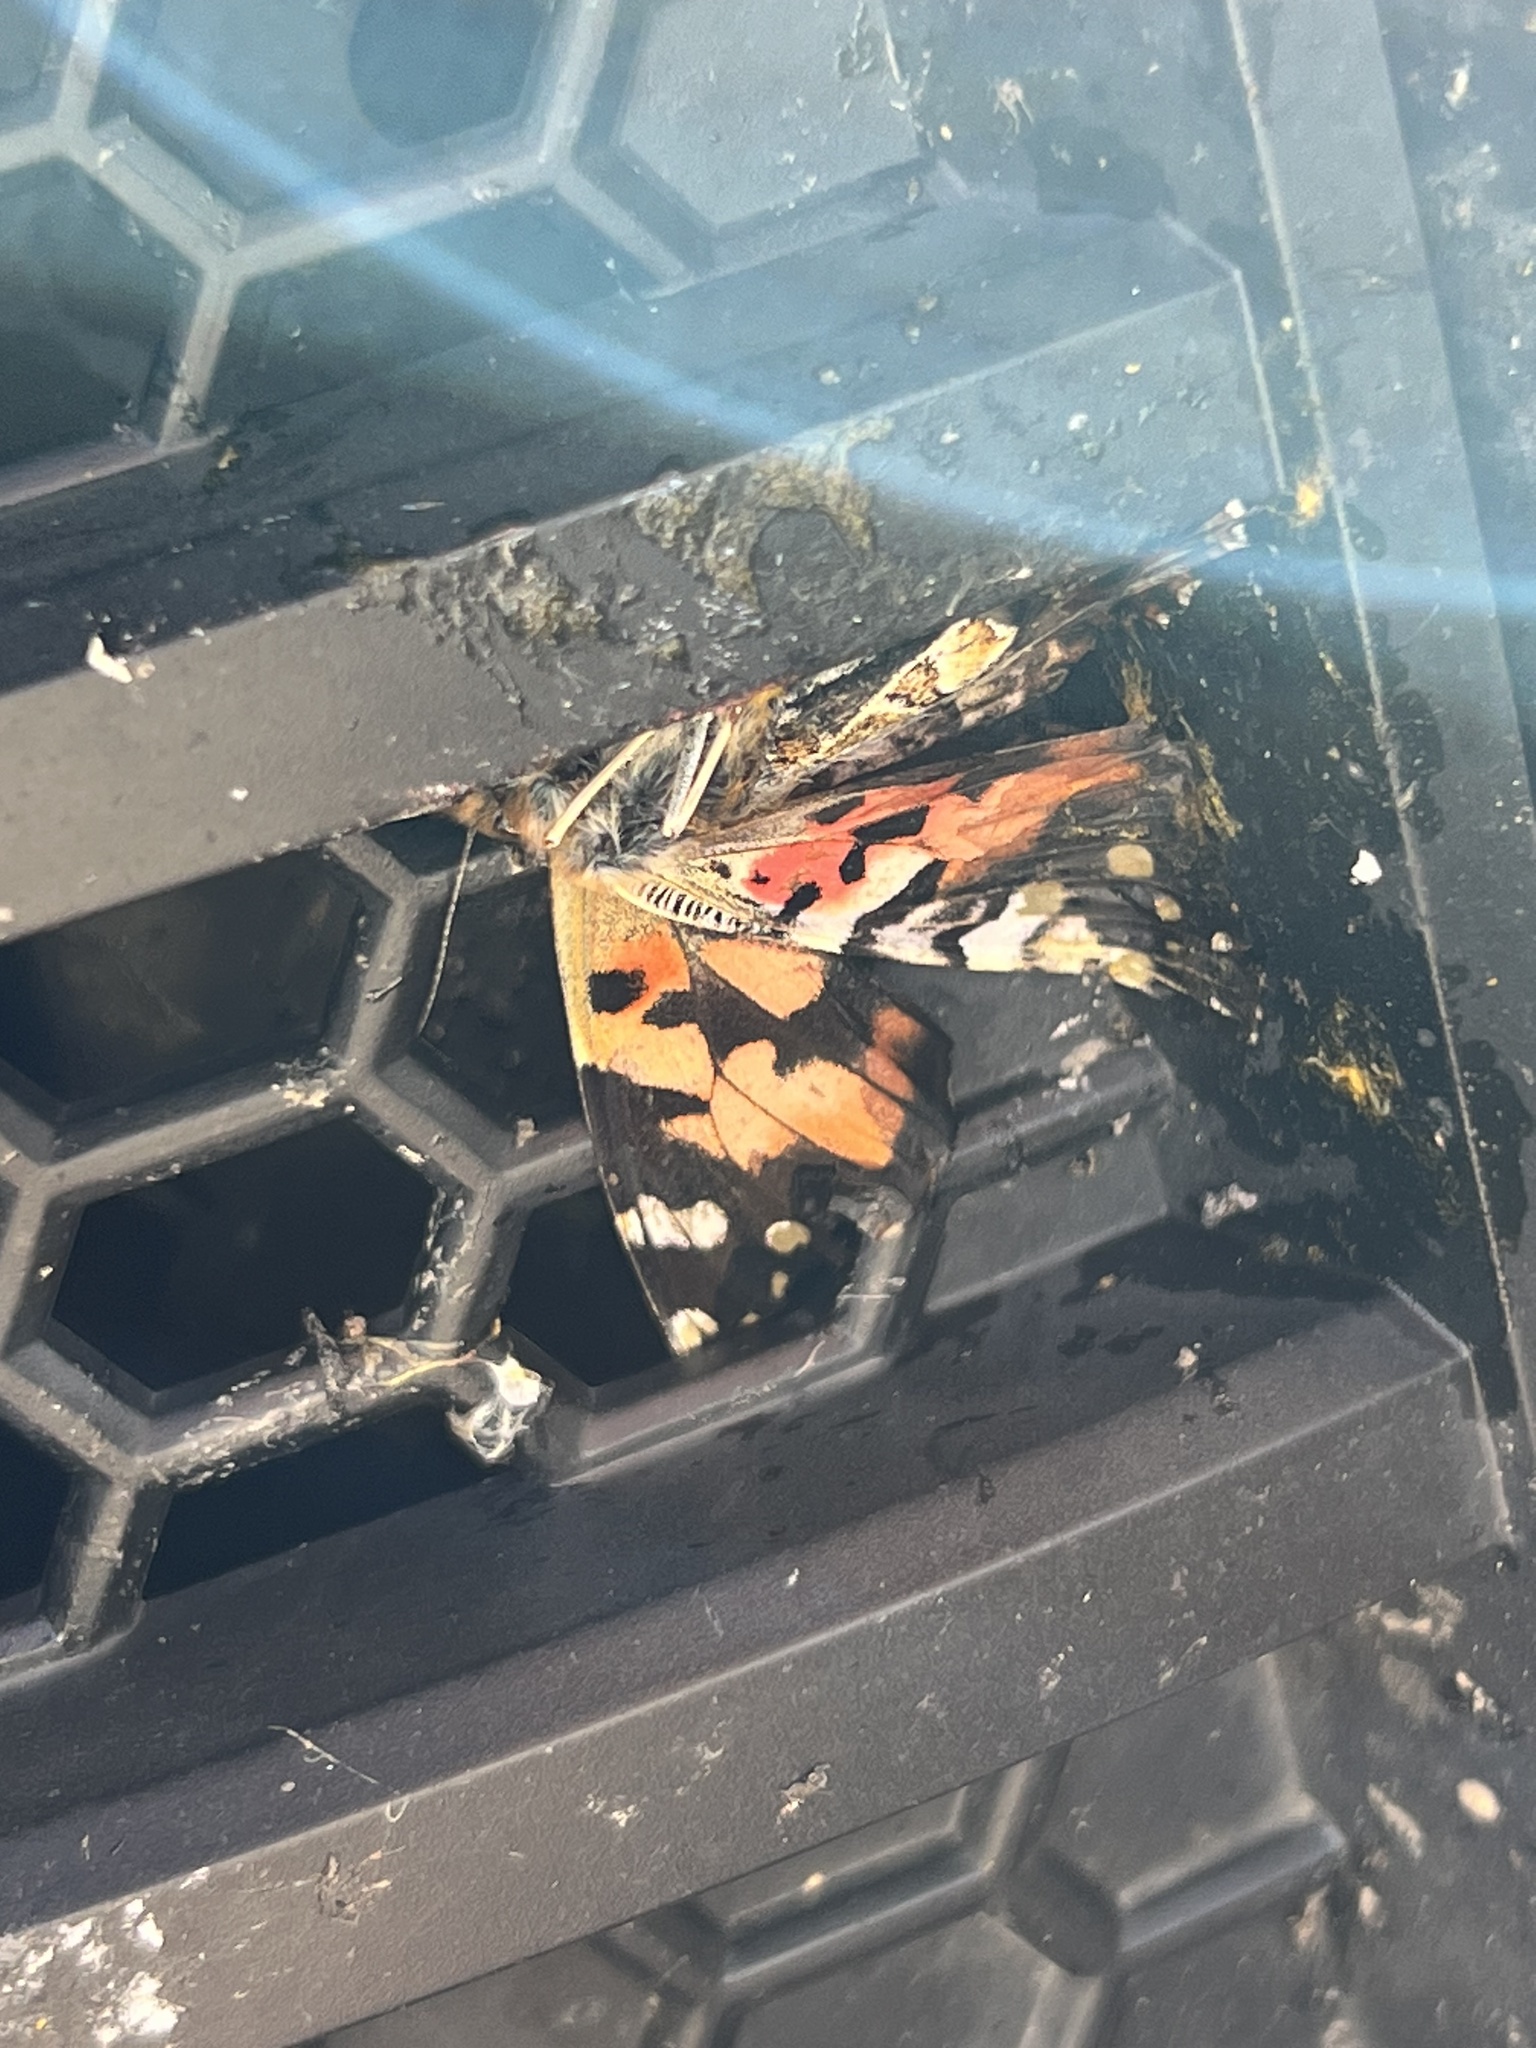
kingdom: Animalia
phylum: Arthropoda
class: Insecta
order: Lepidoptera
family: Nymphalidae
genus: Vanessa
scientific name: Vanessa cardui
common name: Painted lady
